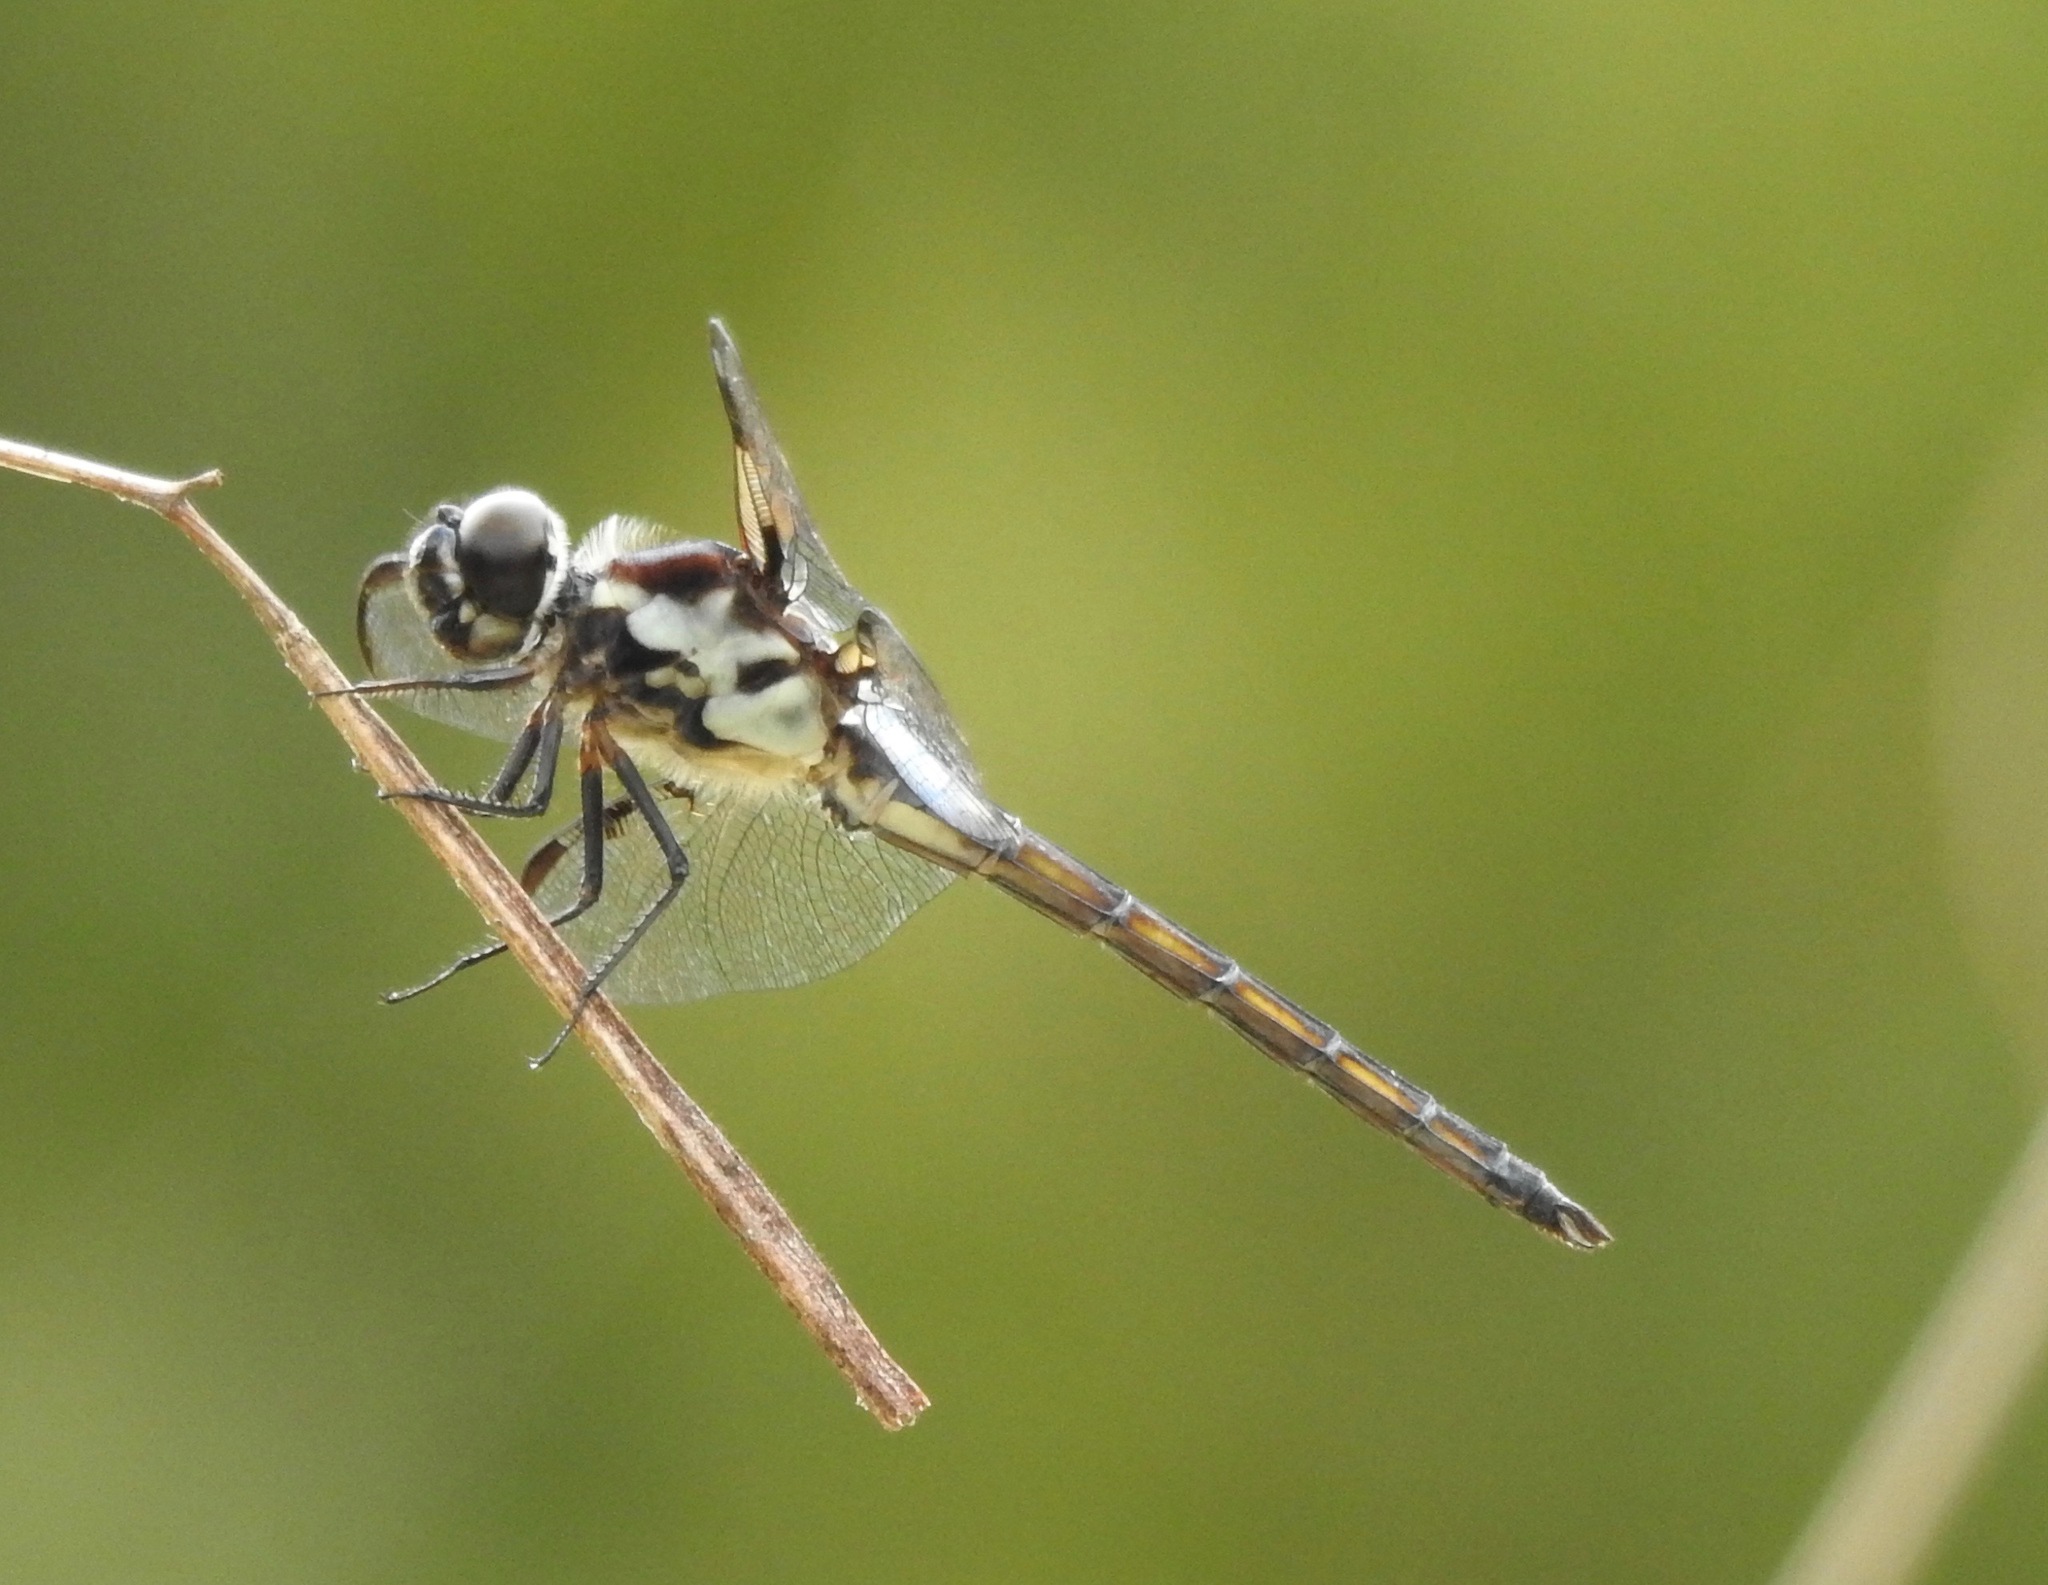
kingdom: Animalia
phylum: Arthropoda
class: Insecta
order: Odonata
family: Libellulidae
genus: Libellula
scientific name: Libellula axilena
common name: Bar-winged skimmer
